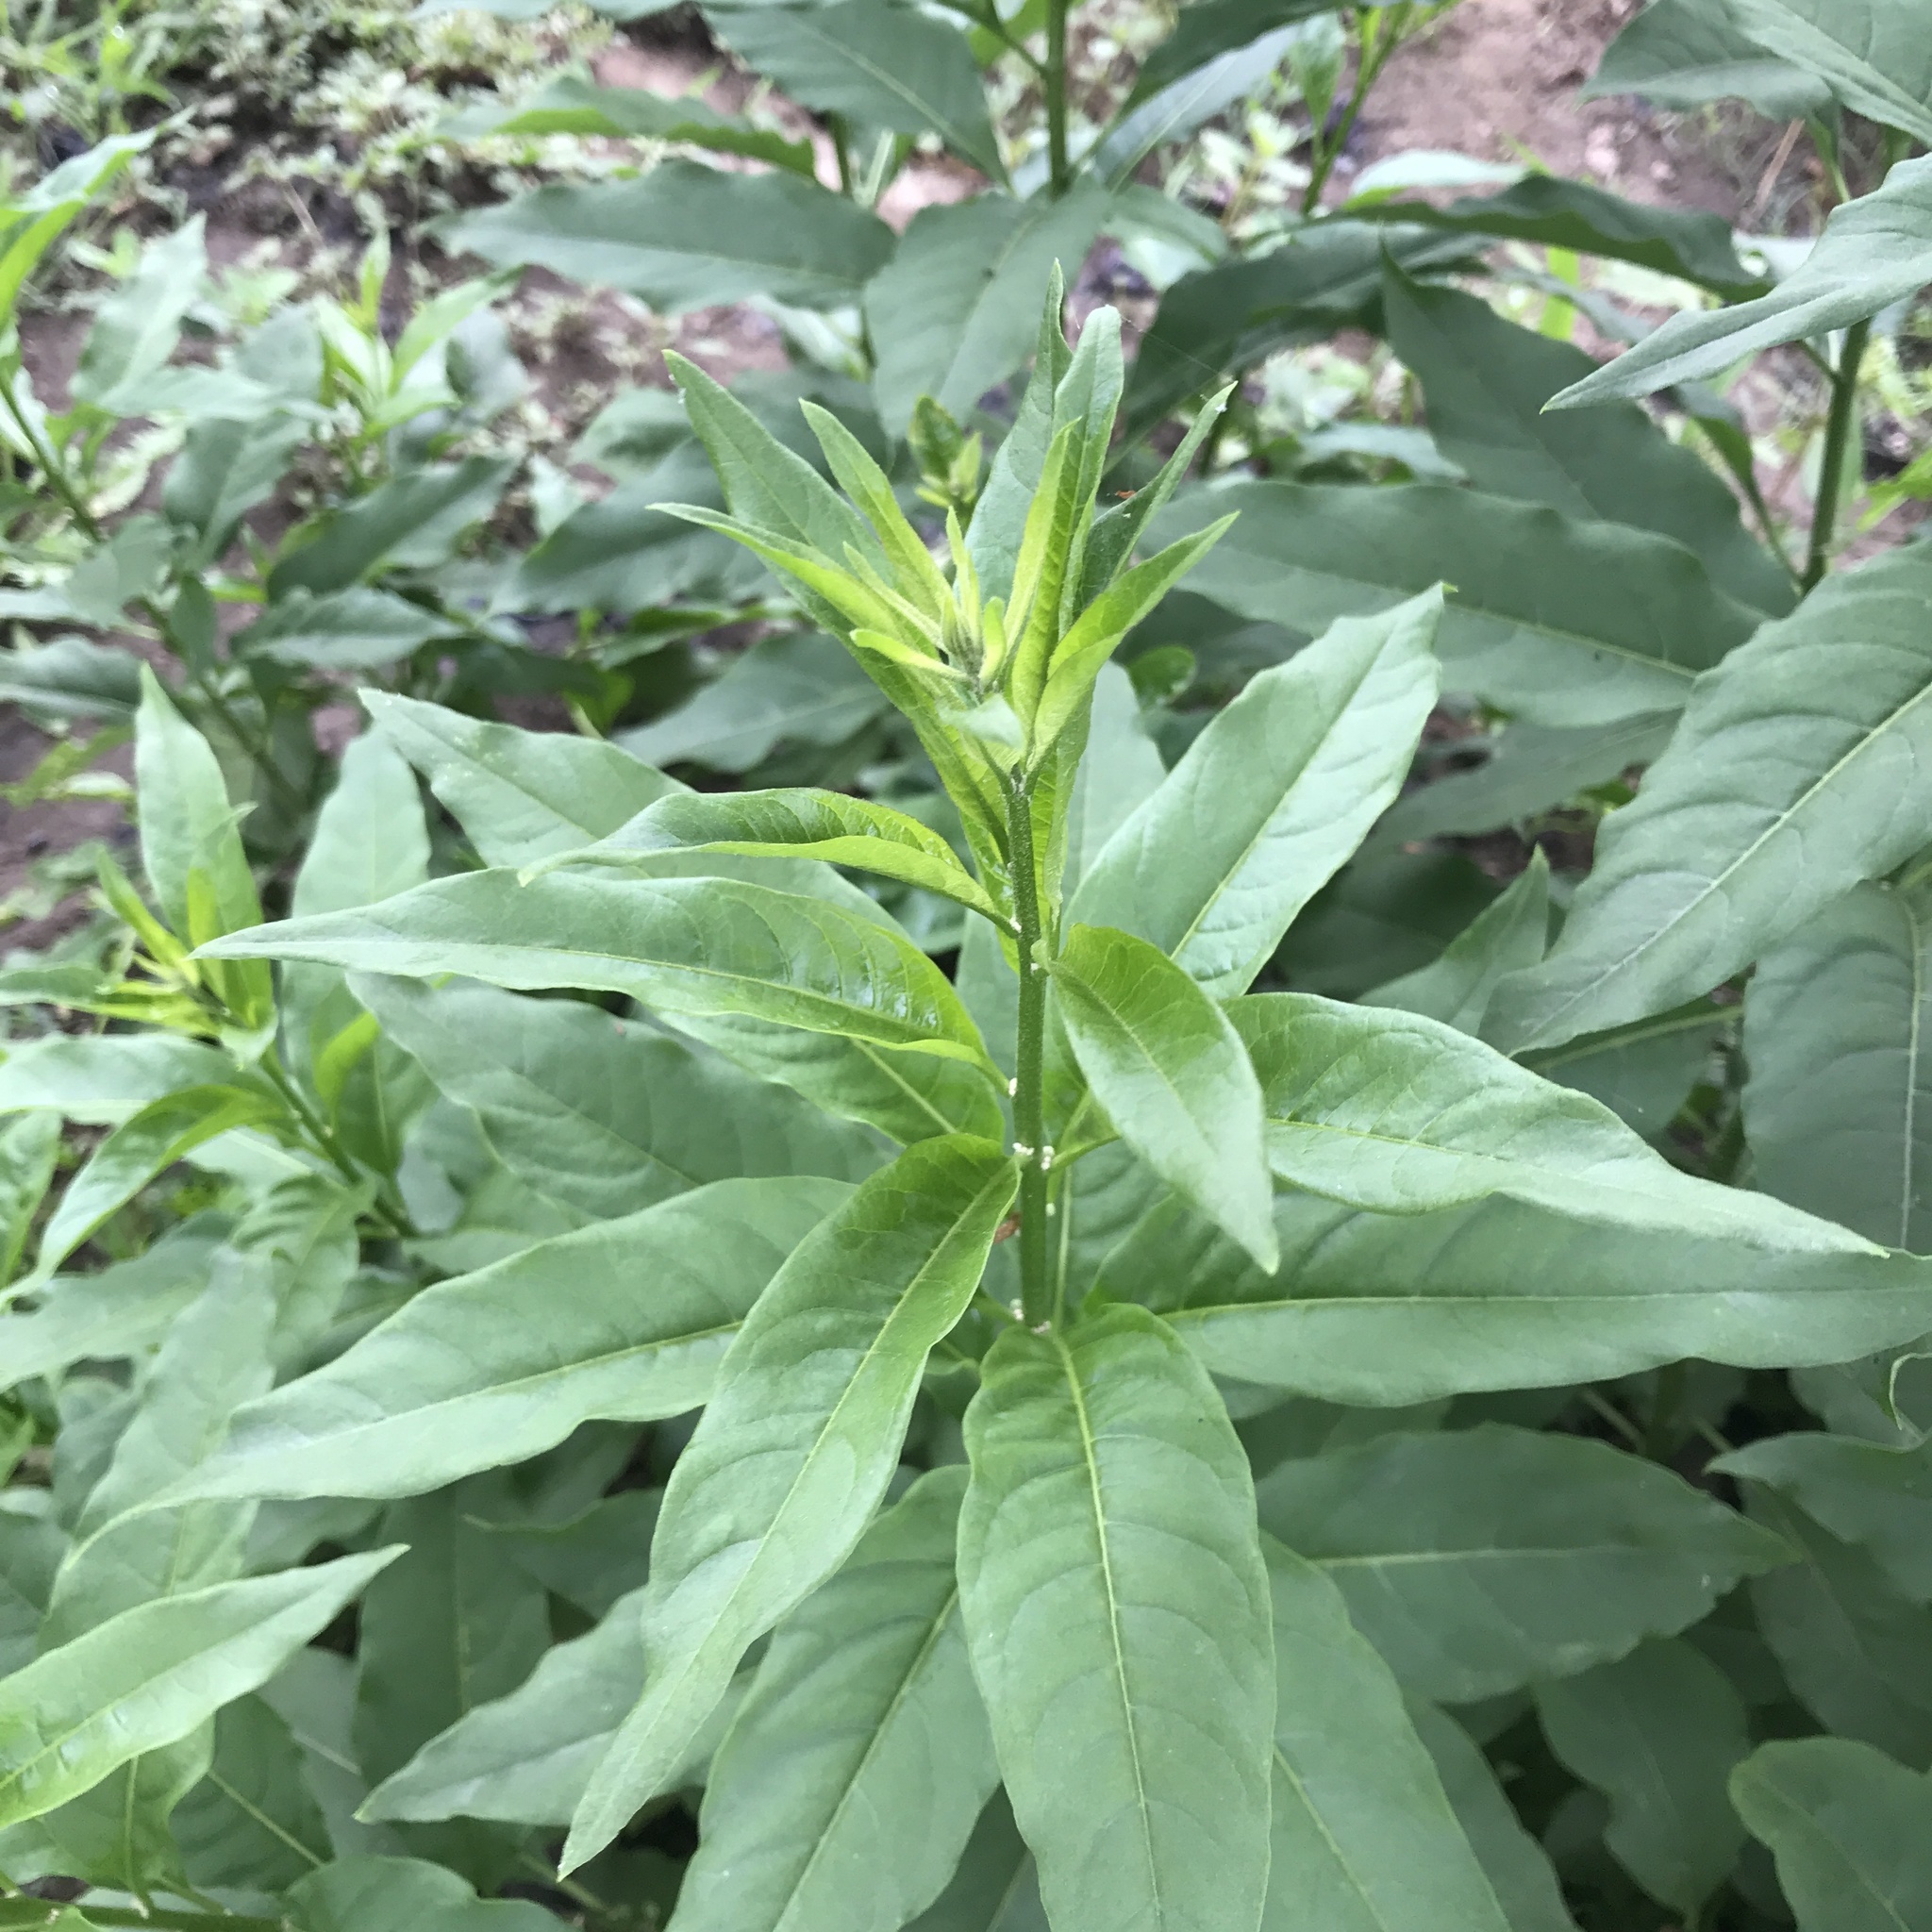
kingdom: Plantae
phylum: Tracheophyta
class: Magnoliopsida
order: Solanales
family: Solanaceae
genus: Cestrum
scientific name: Cestrum parqui
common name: Chilean cestrum
